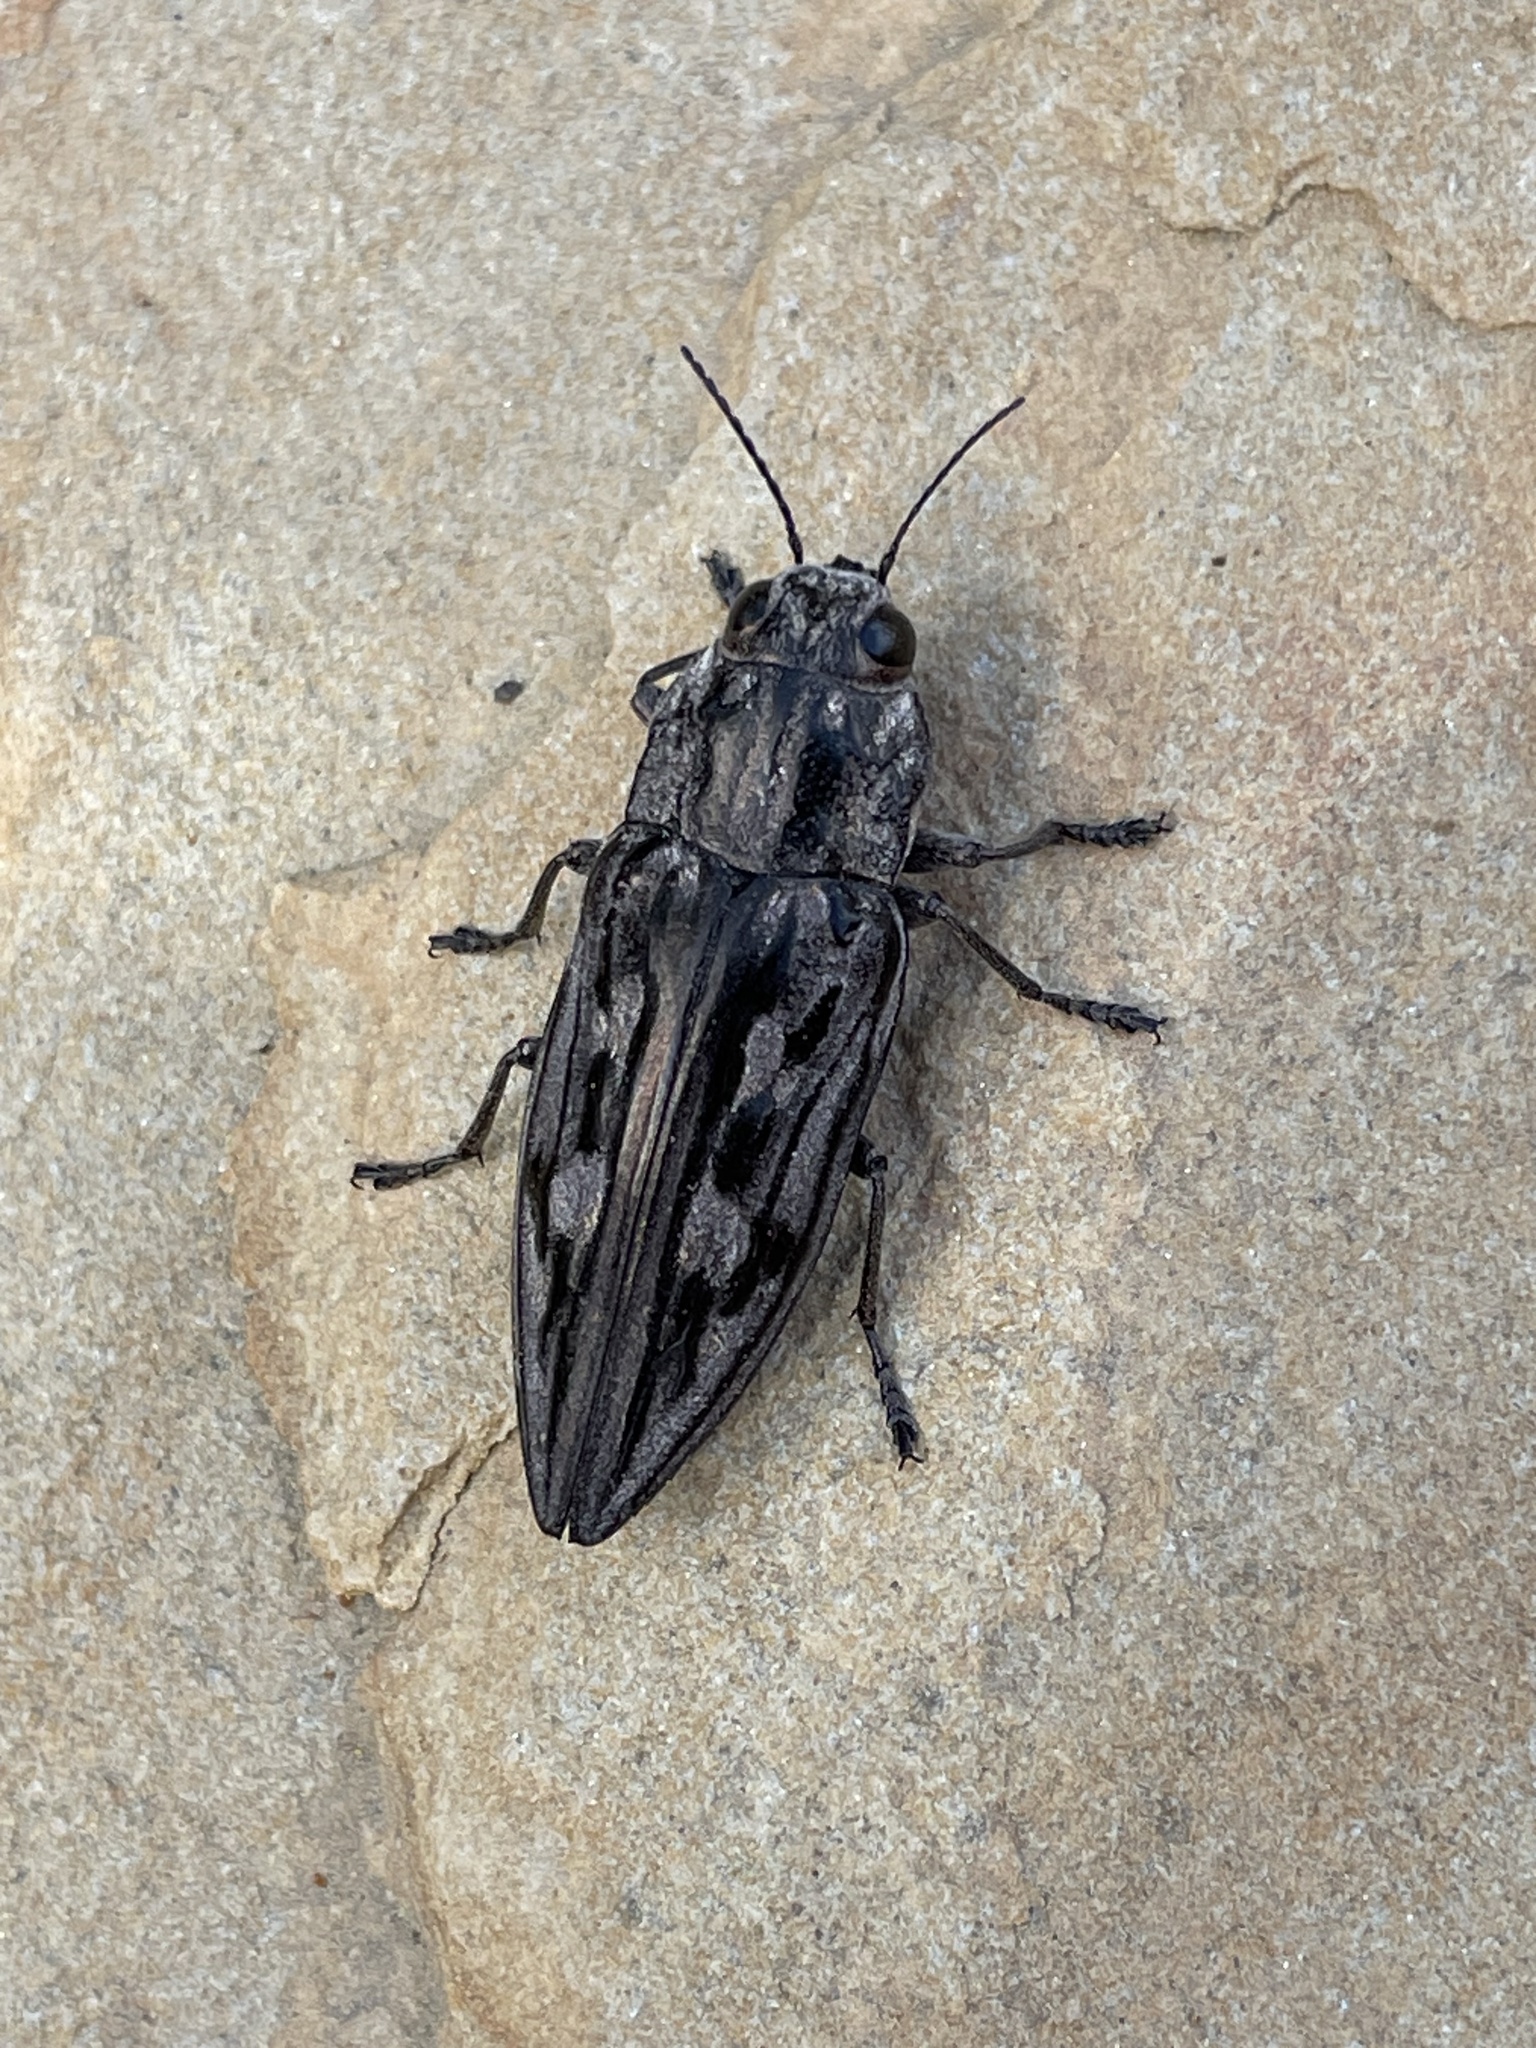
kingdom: Animalia
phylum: Arthropoda
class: Insecta
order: Coleoptera
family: Buprestidae
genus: Chalcophora
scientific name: Chalcophora virginiensis
